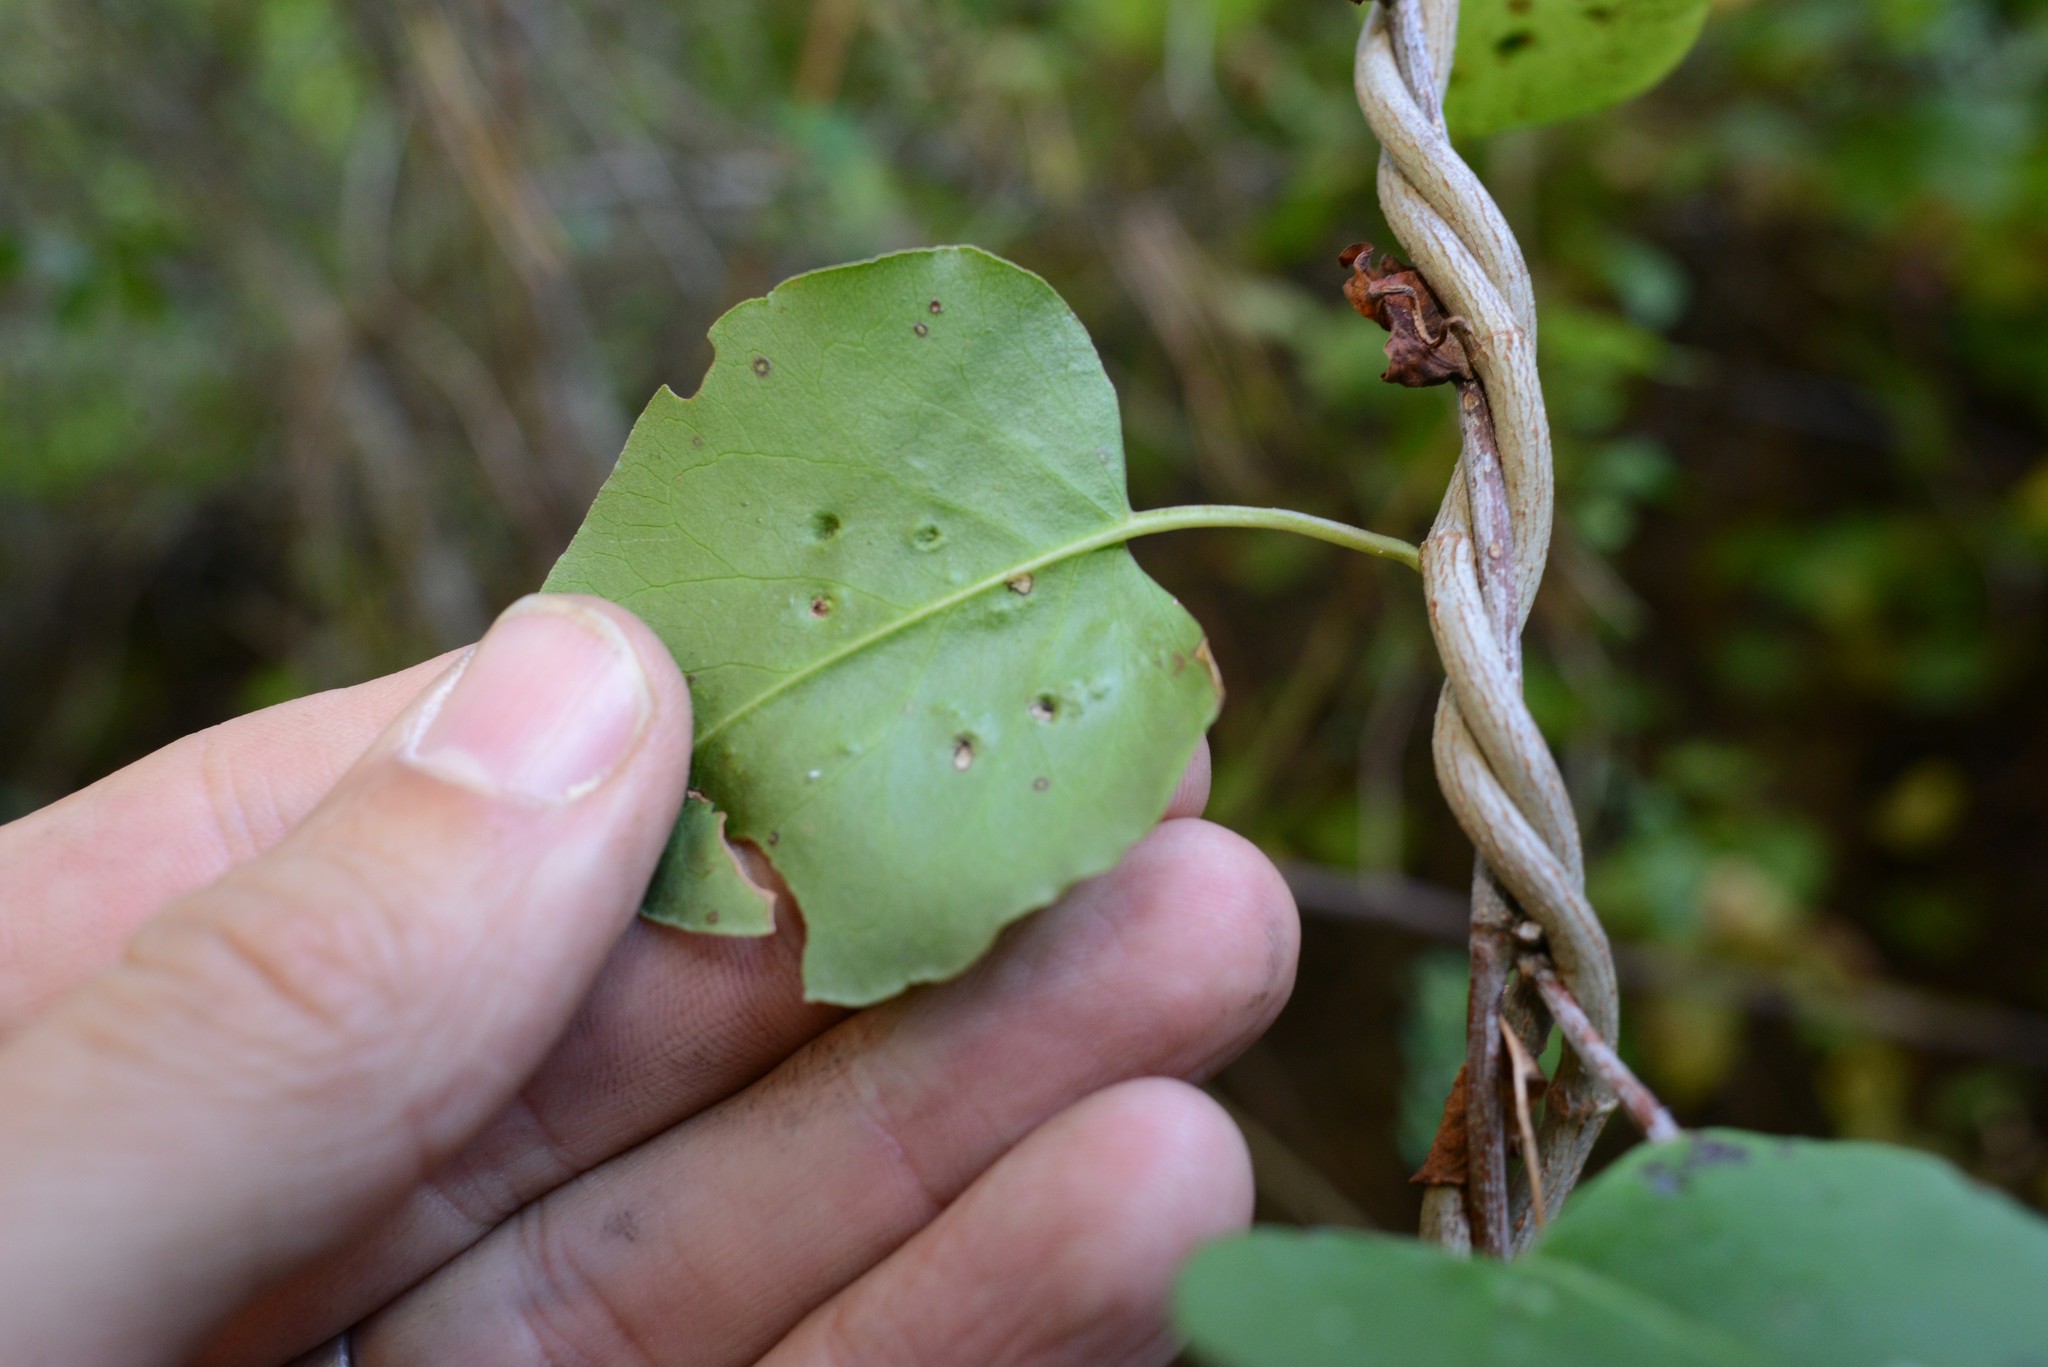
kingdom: Animalia
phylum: Arthropoda
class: Arachnida
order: Trombidiformes
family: Eriophyidae
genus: Aceria
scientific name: Aceria lamii
